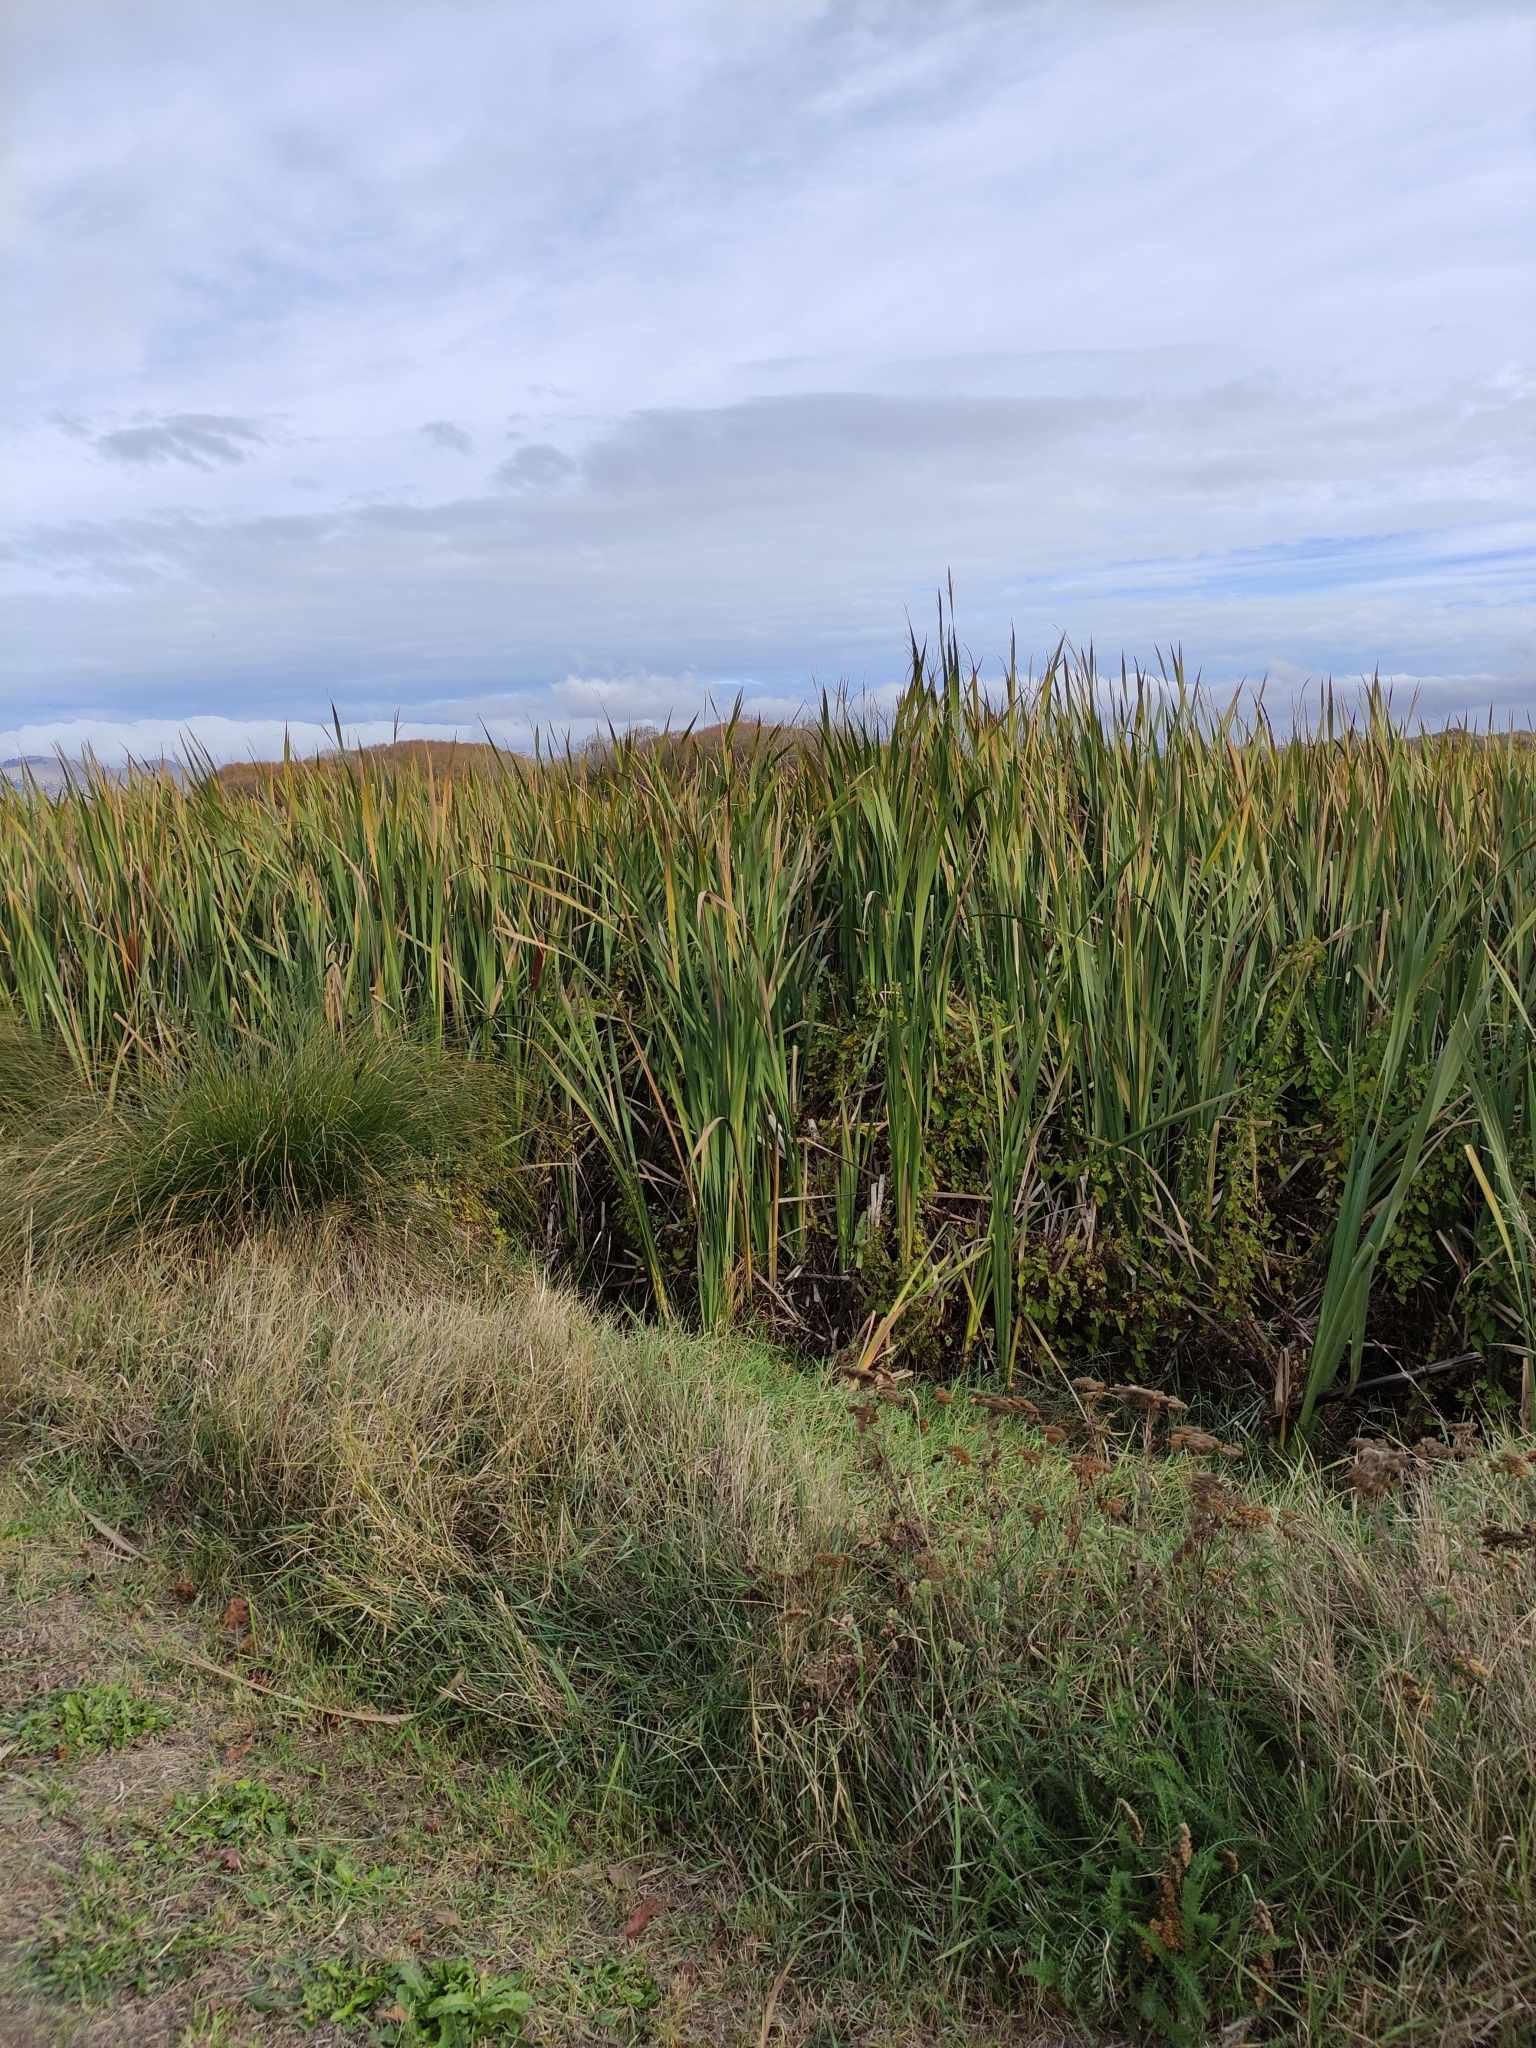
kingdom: Plantae
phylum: Tracheophyta
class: Liliopsida
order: Poales
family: Typhaceae
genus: Typha
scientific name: Typha orientalis
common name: Bullrush
